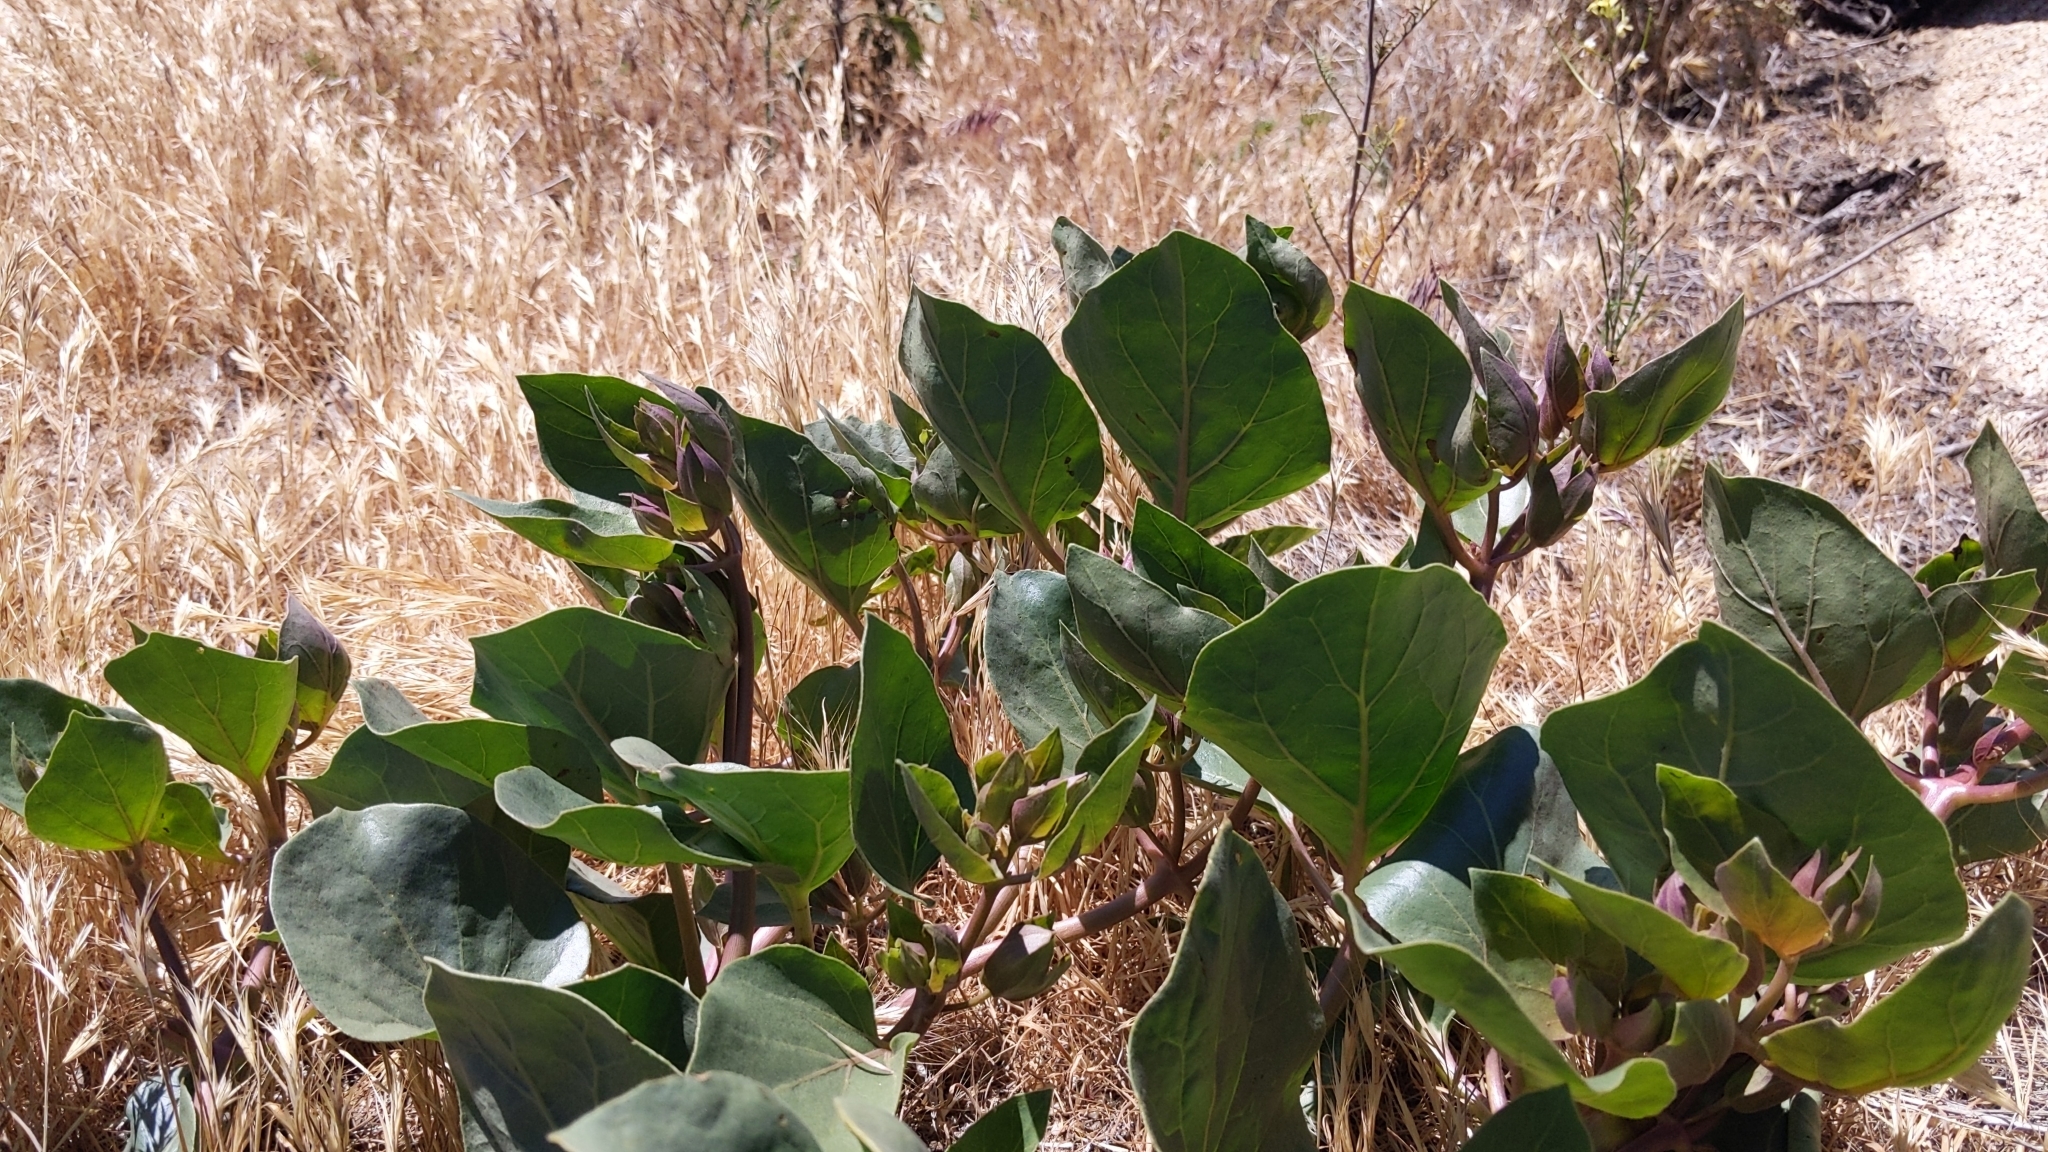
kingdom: Plantae
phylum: Tracheophyta
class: Magnoliopsida
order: Caryophyllales
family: Nyctaginaceae
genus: Mirabilis
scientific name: Mirabilis multiflora
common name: Froebel's four-o'clock
